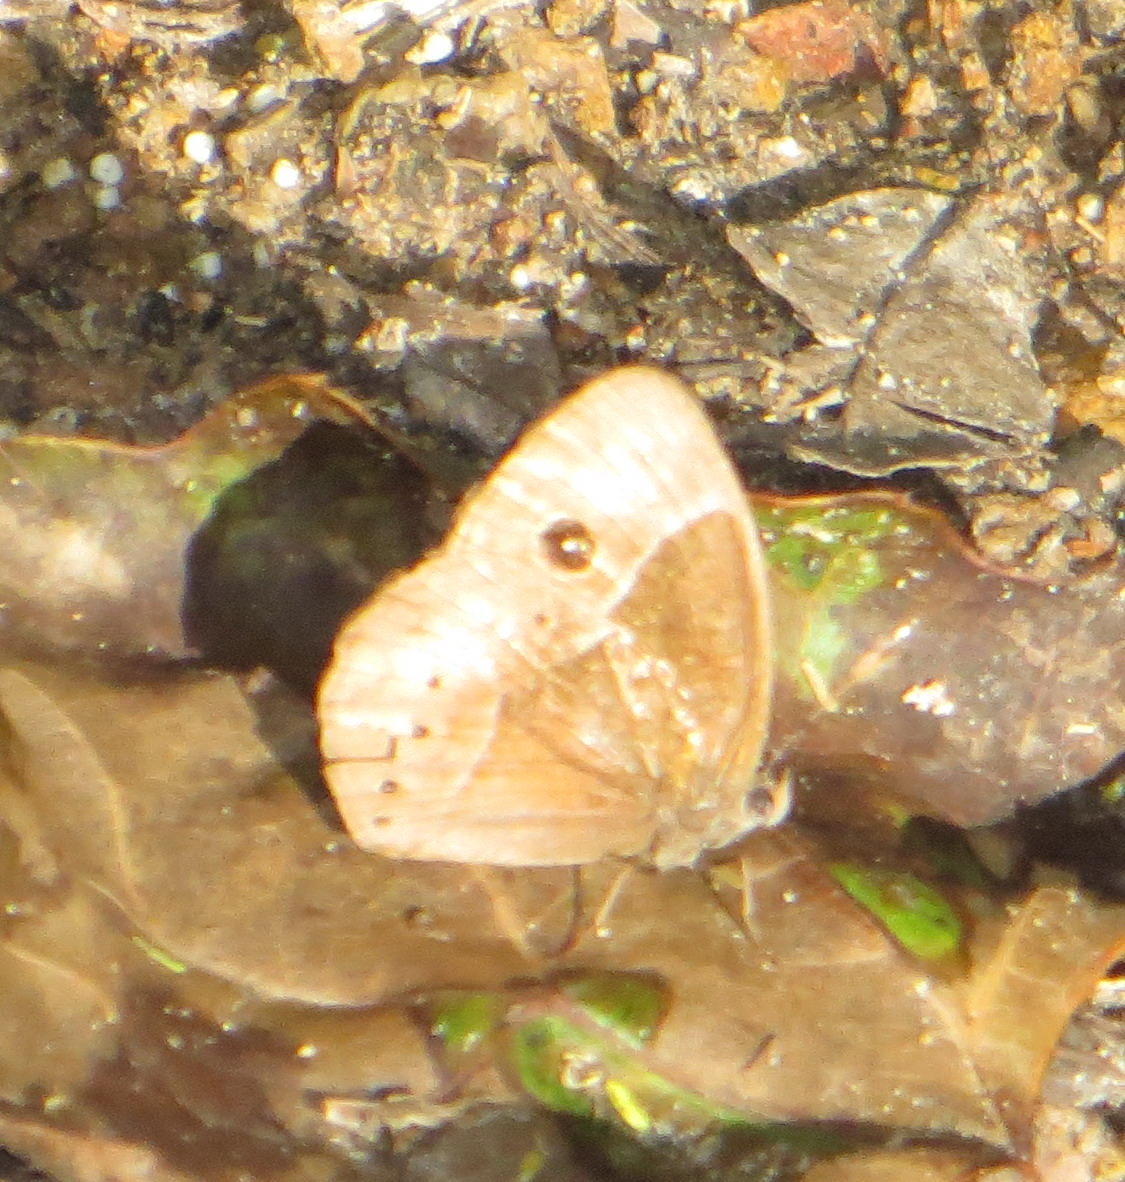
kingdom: Animalia
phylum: Arthropoda
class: Insecta
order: Lepidoptera
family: Nymphalidae
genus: Mycalesis
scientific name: Mycalesis rhacotis
